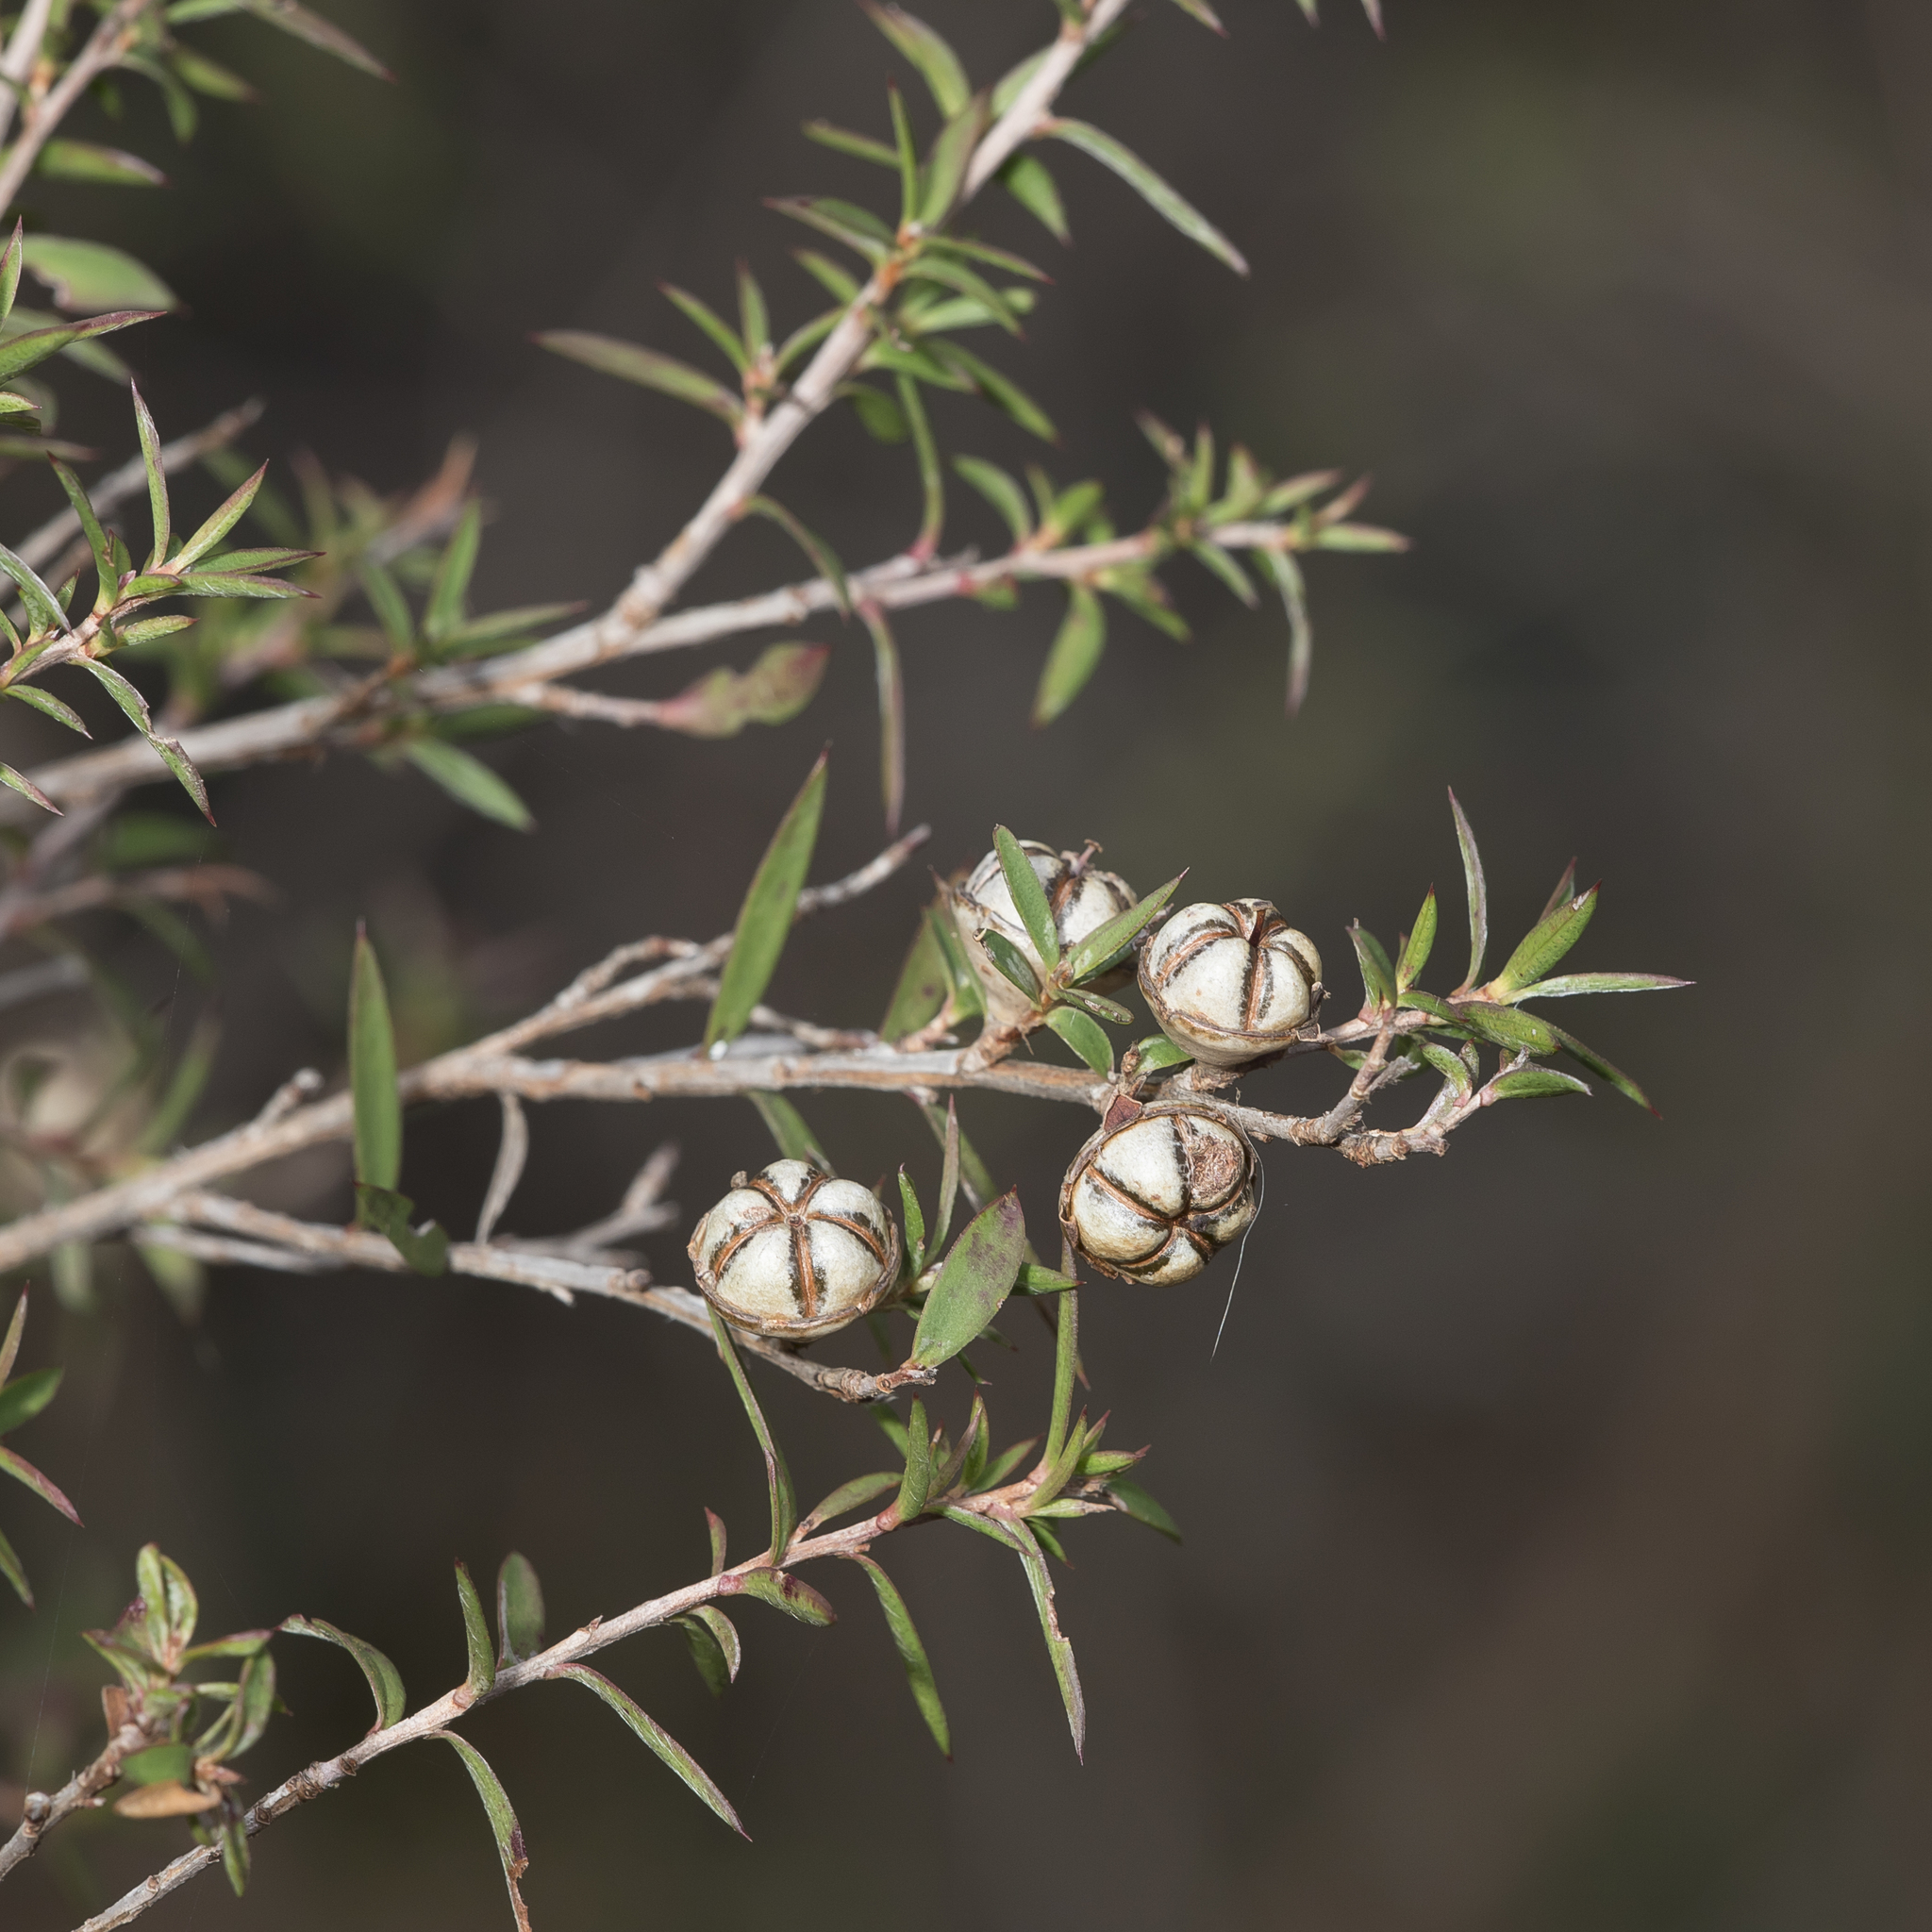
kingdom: Plantae
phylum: Tracheophyta
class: Magnoliopsida
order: Myrtales
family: Myrtaceae
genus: Leptospermum
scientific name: Leptospermum continentale
